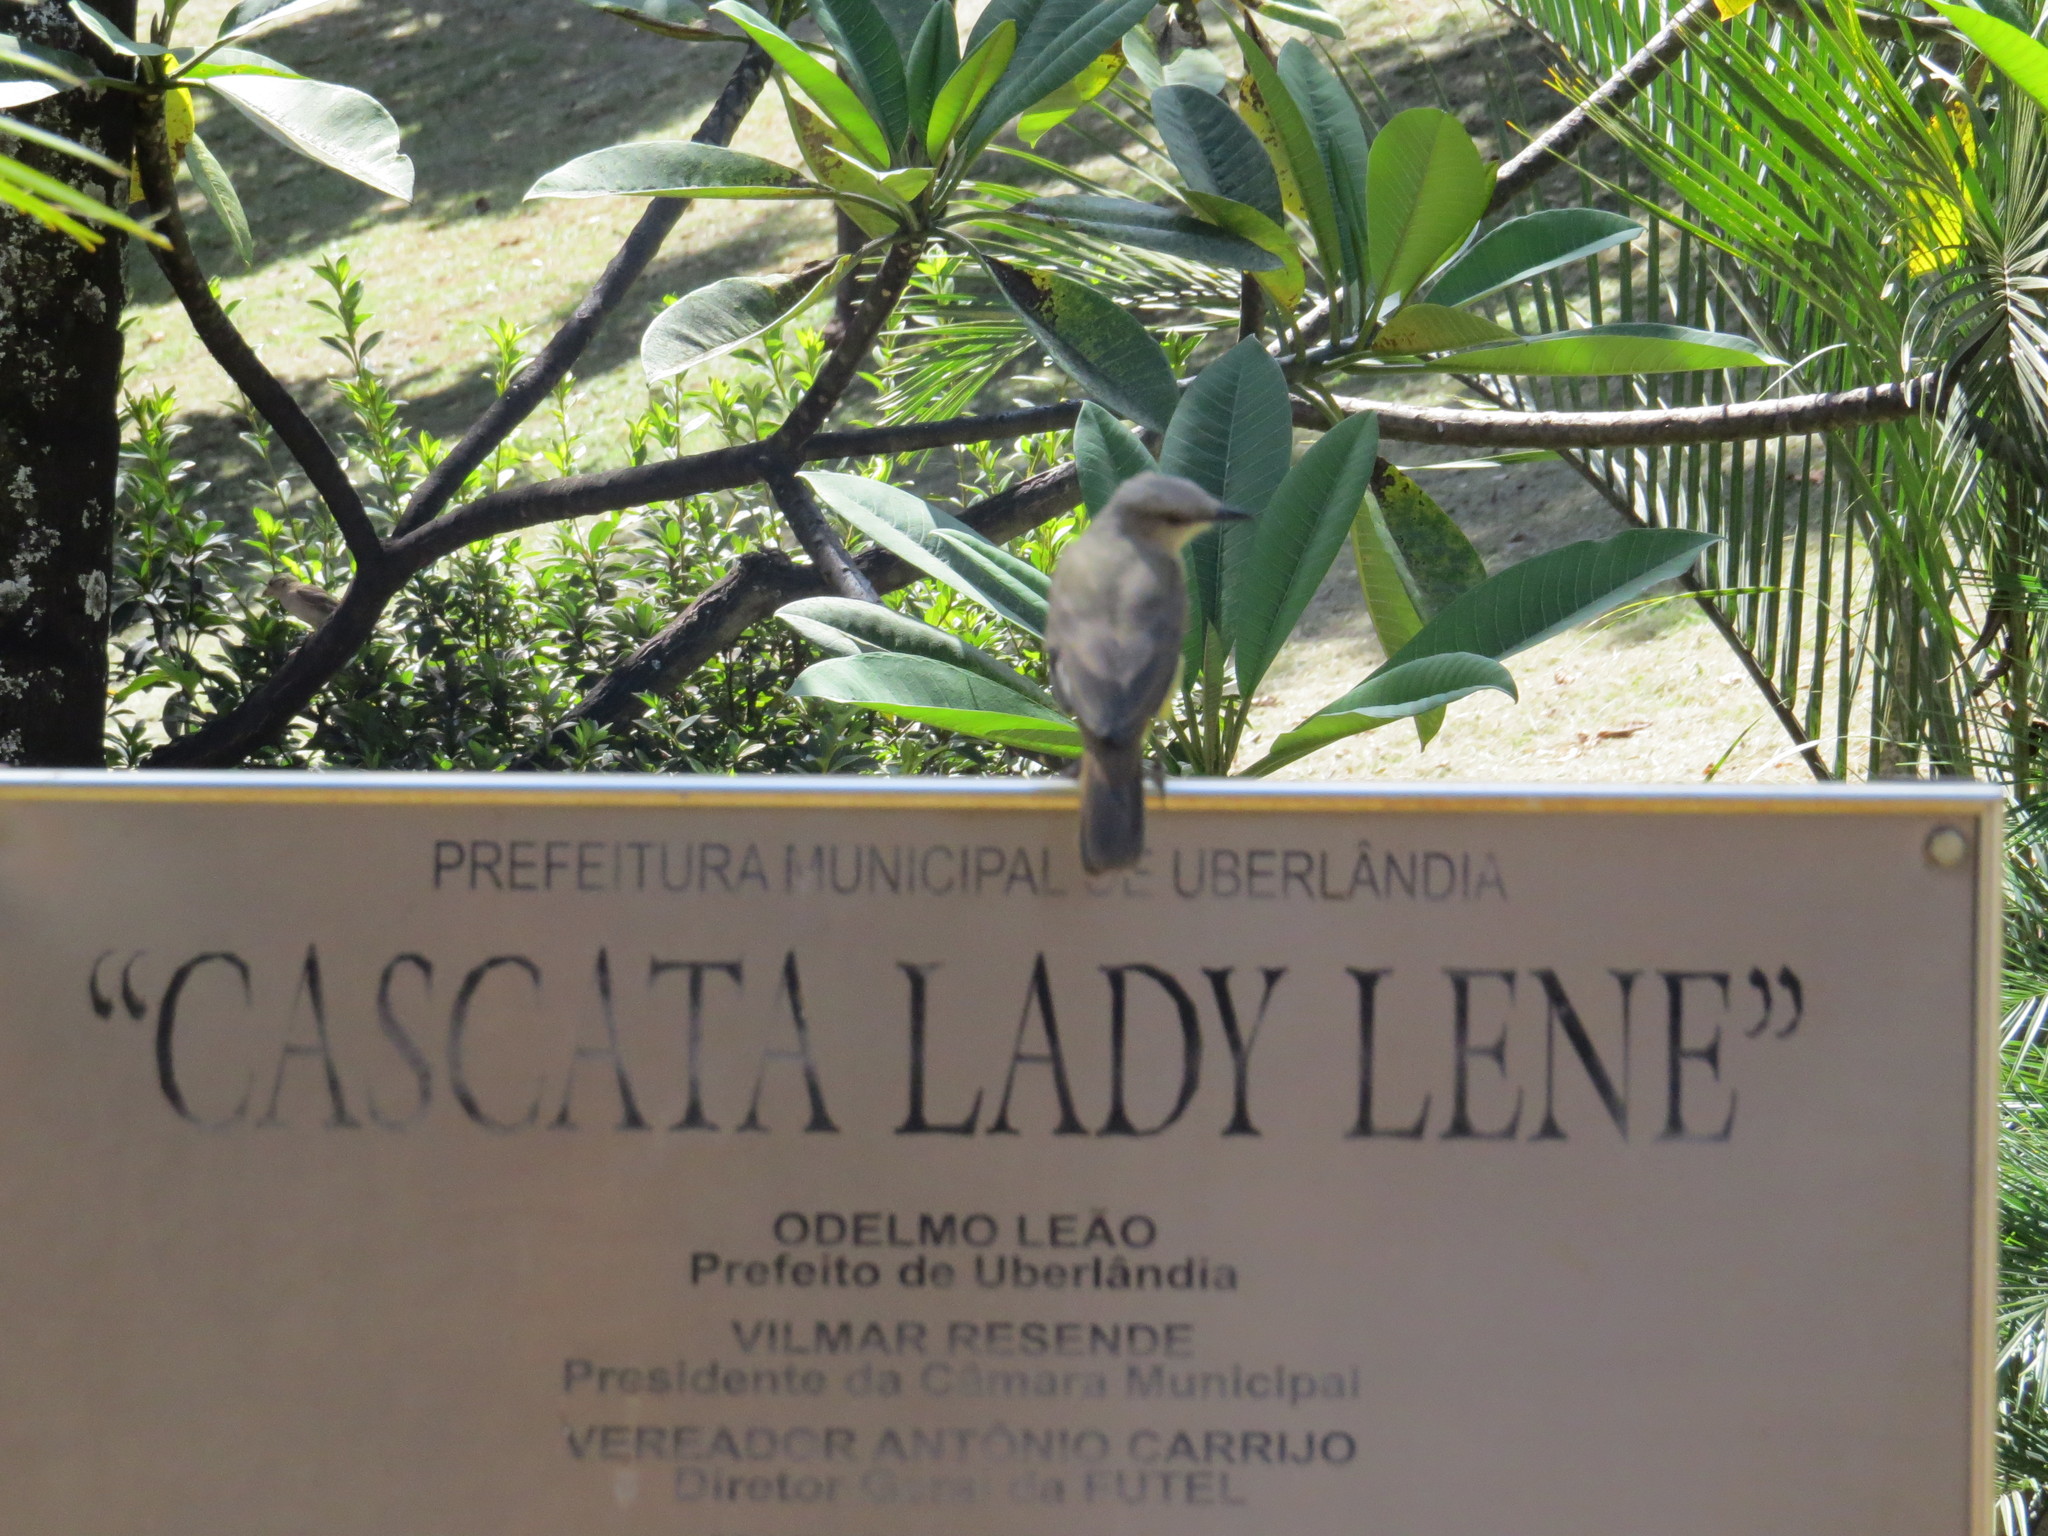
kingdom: Animalia
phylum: Chordata
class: Aves
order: Passeriformes
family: Tyrannidae
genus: Machetornis
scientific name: Machetornis rixosa
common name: Cattle tyrant
